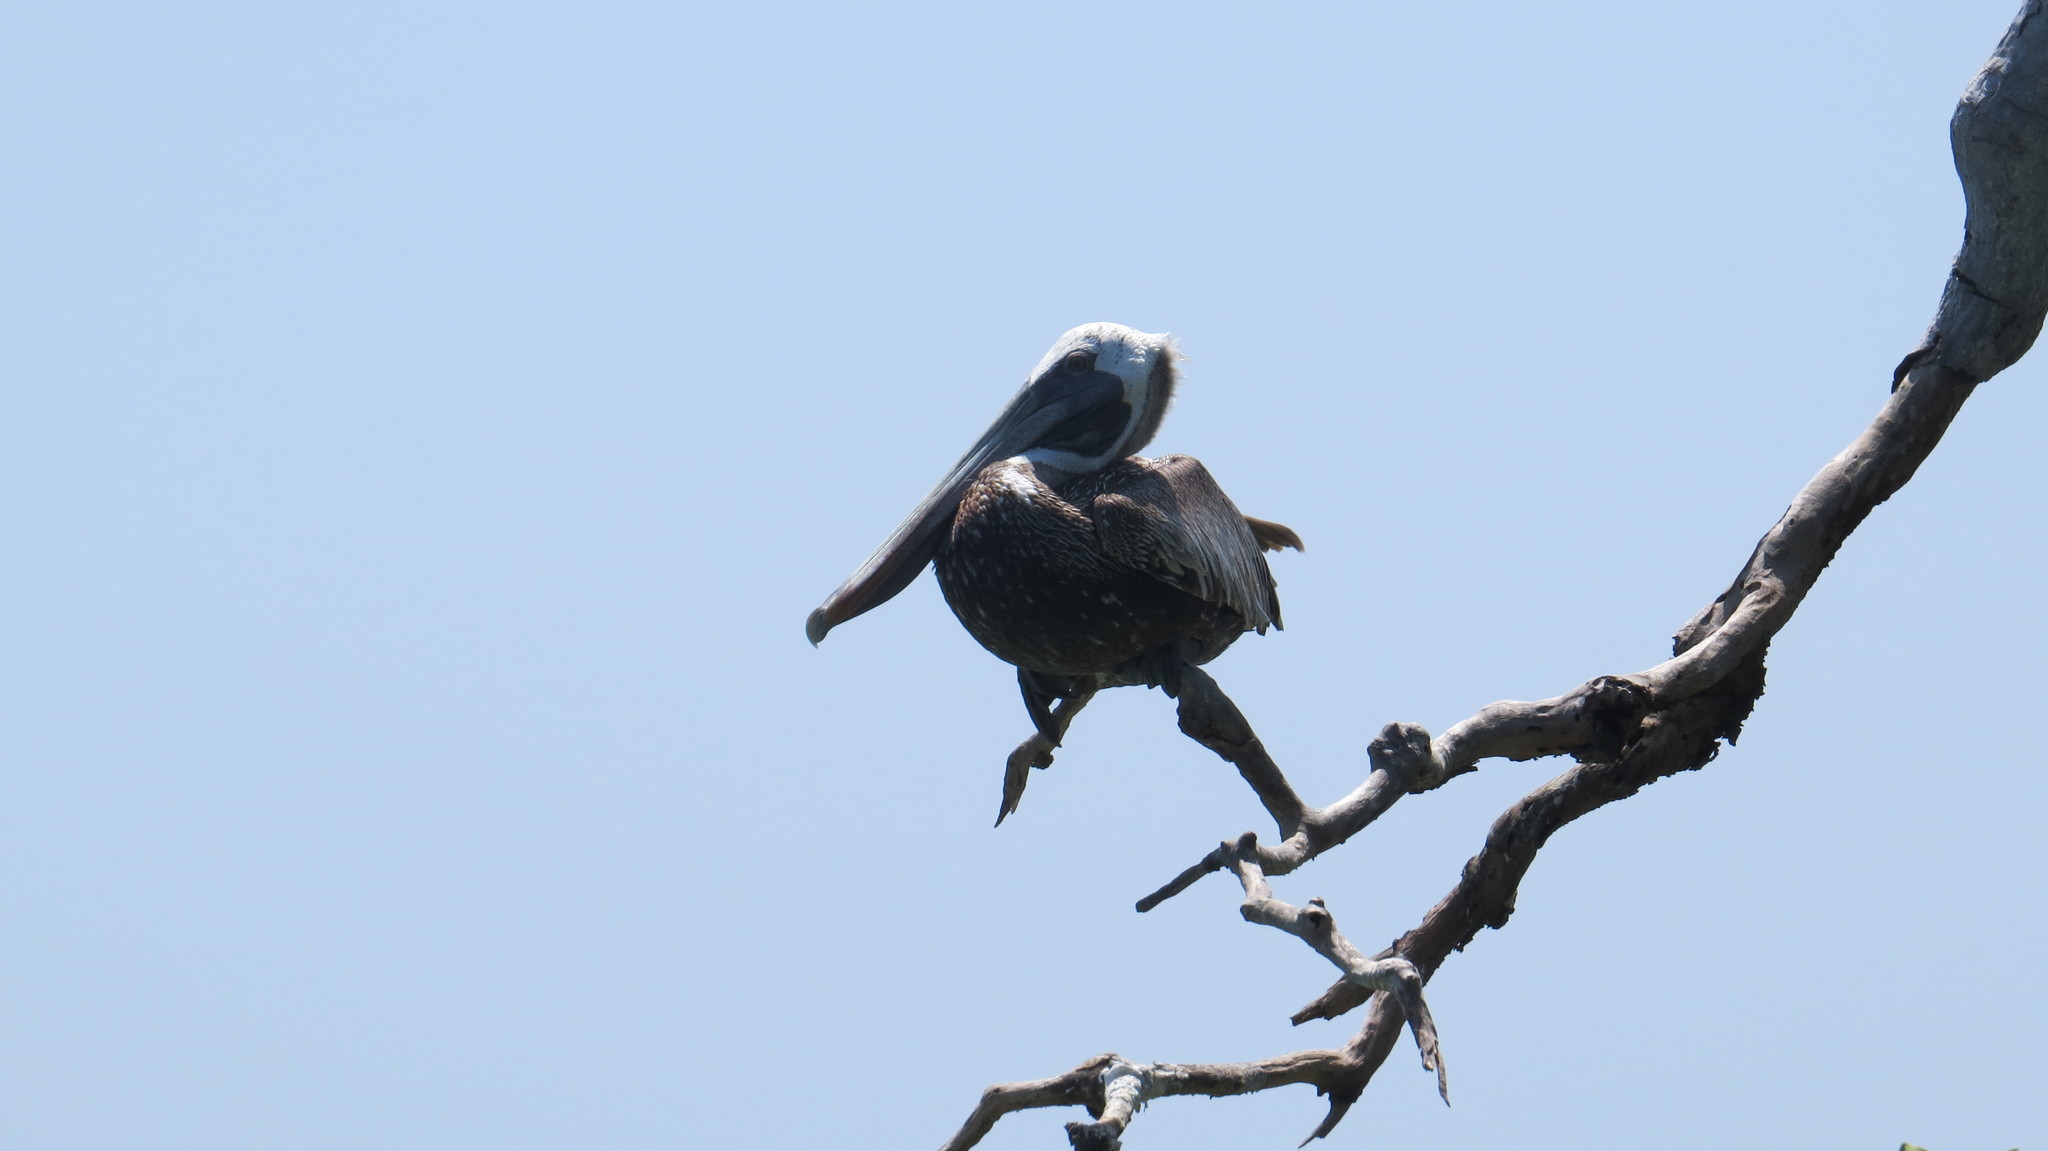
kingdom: Animalia
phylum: Chordata
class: Aves
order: Pelecaniformes
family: Pelecanidae
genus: Pelecanus
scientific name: Pelecanus occidentalis
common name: Brown pelican
